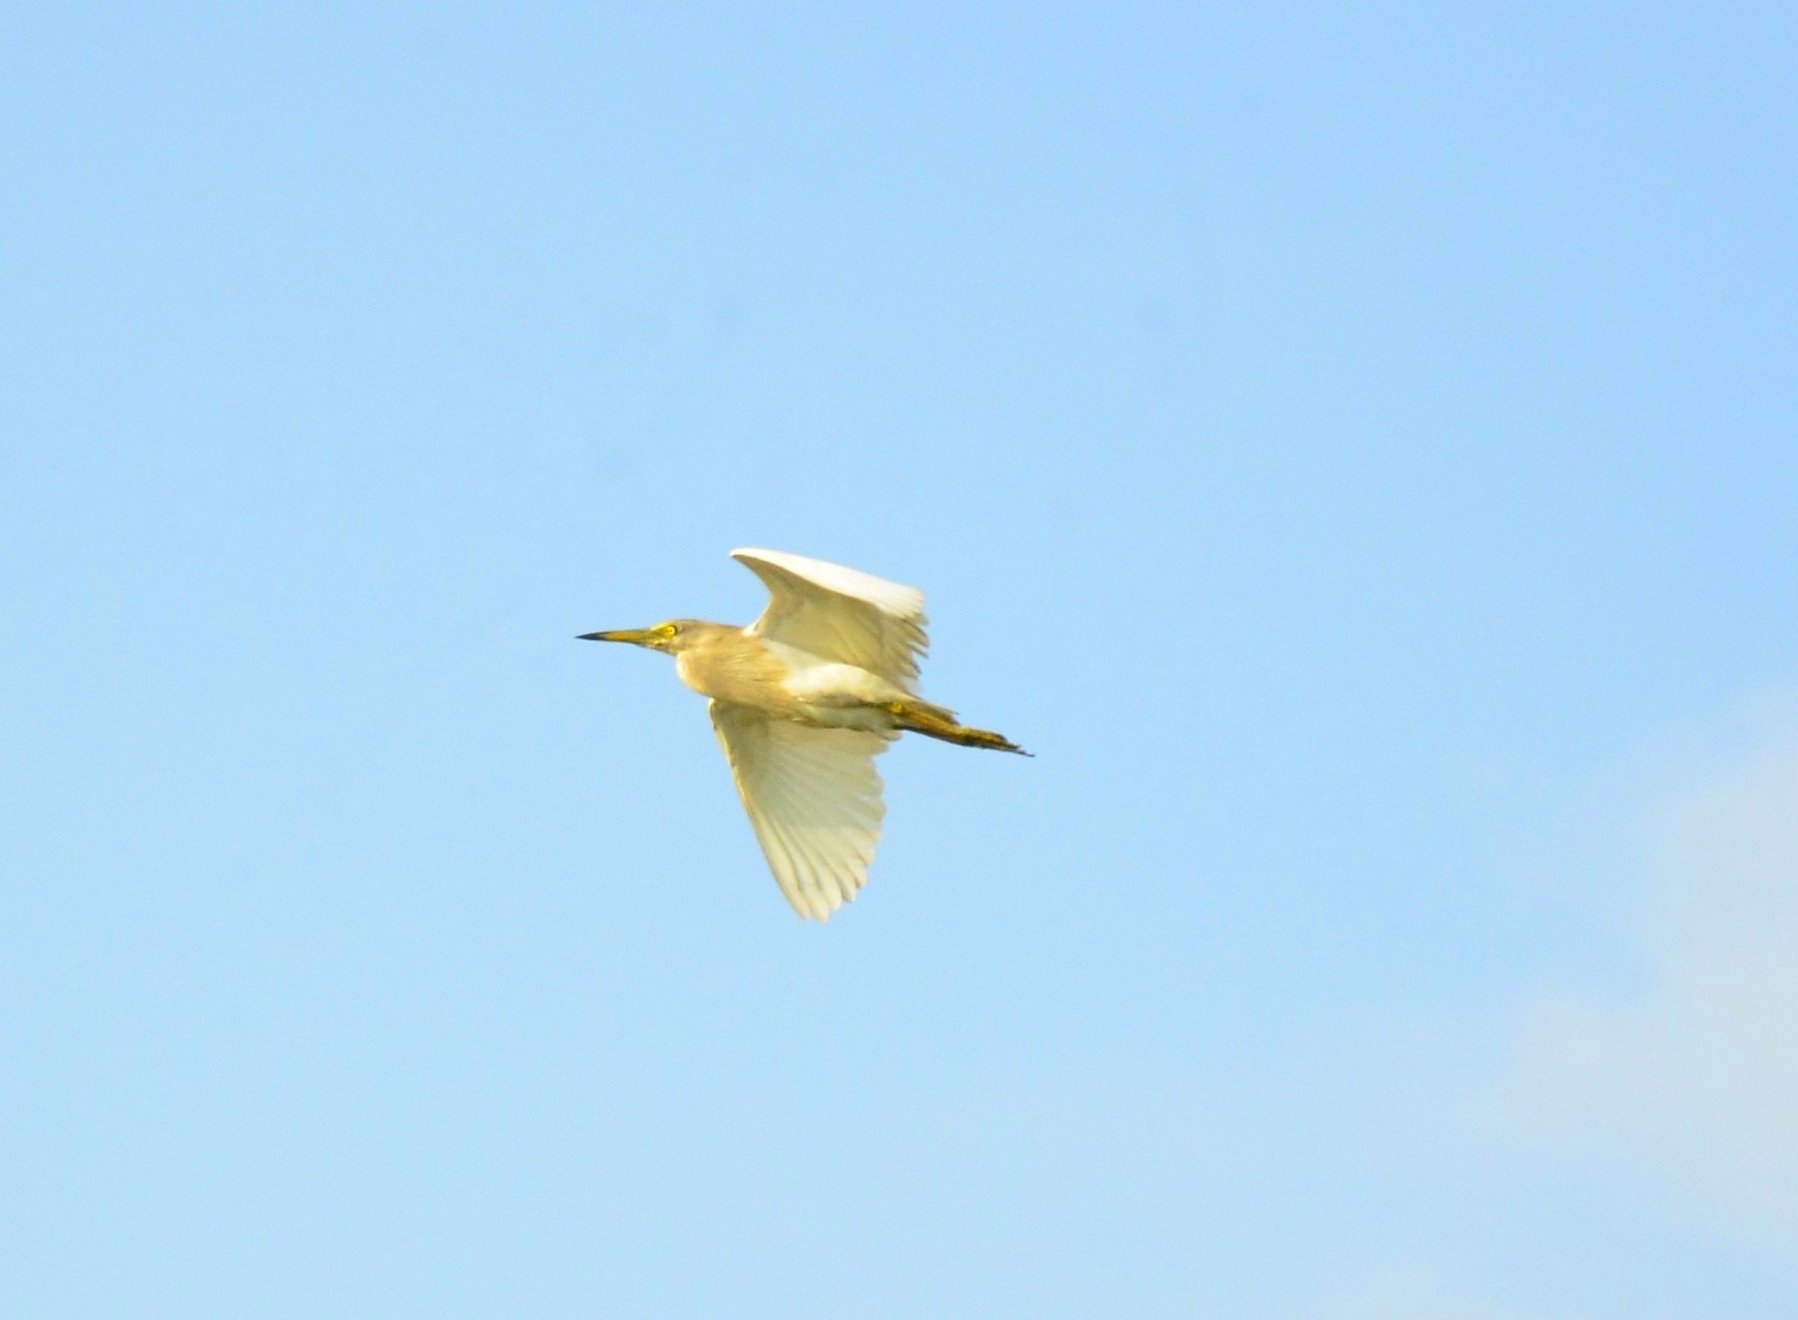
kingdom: Animalia
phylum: Chordata
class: Aves
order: Pelecaniformes
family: Ardeidae
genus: Ardeola
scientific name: Ardeola grayii
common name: Indian pond heron
